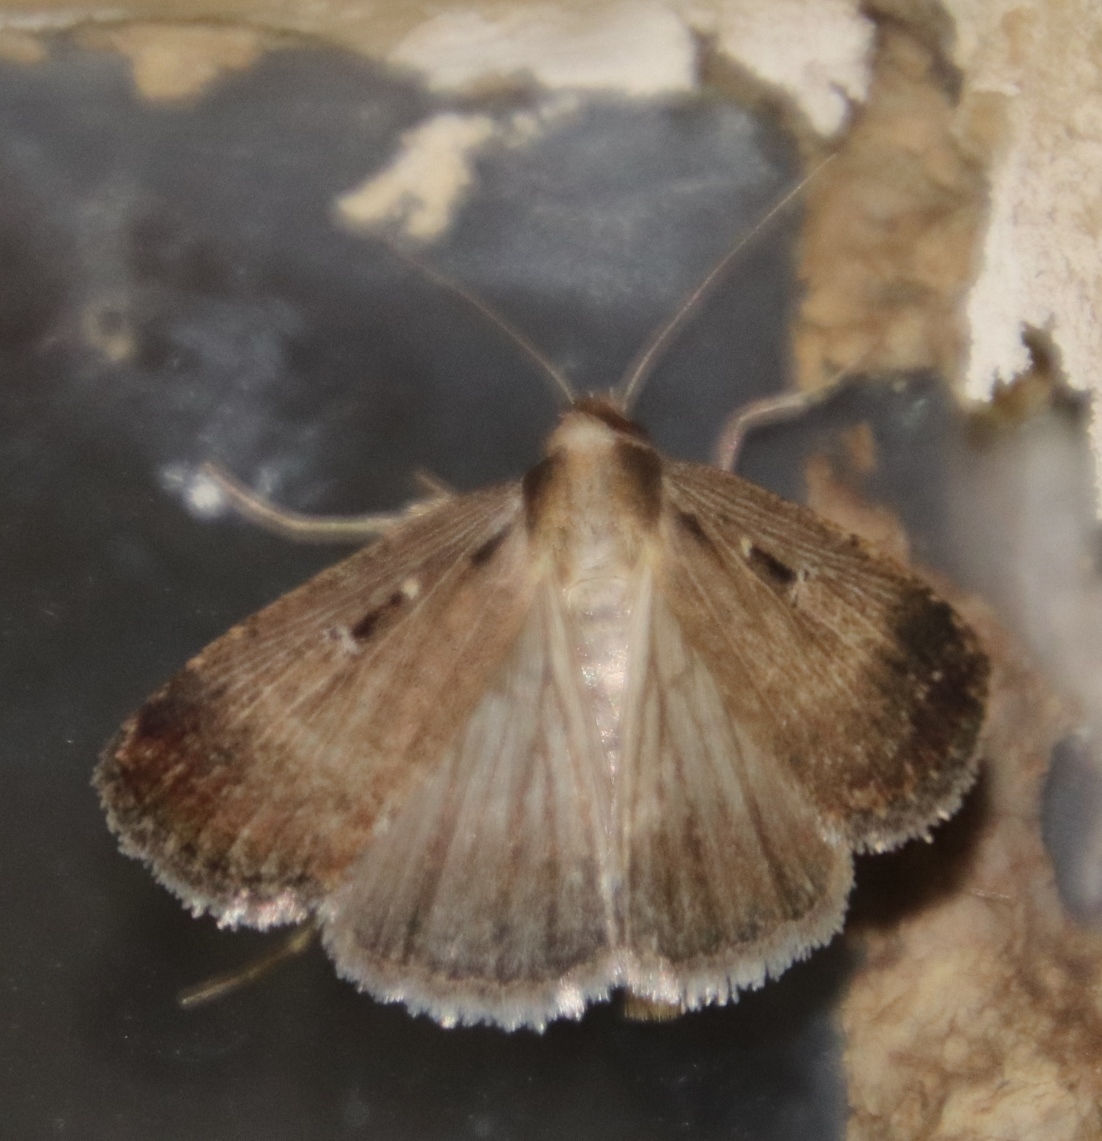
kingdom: Animalia
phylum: Arthropoda
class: Insecta
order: Lepidoptera
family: Noctuidae
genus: Tathorhynchus
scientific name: Tathorhynchus exsiccata
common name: Levant blackneck moth
